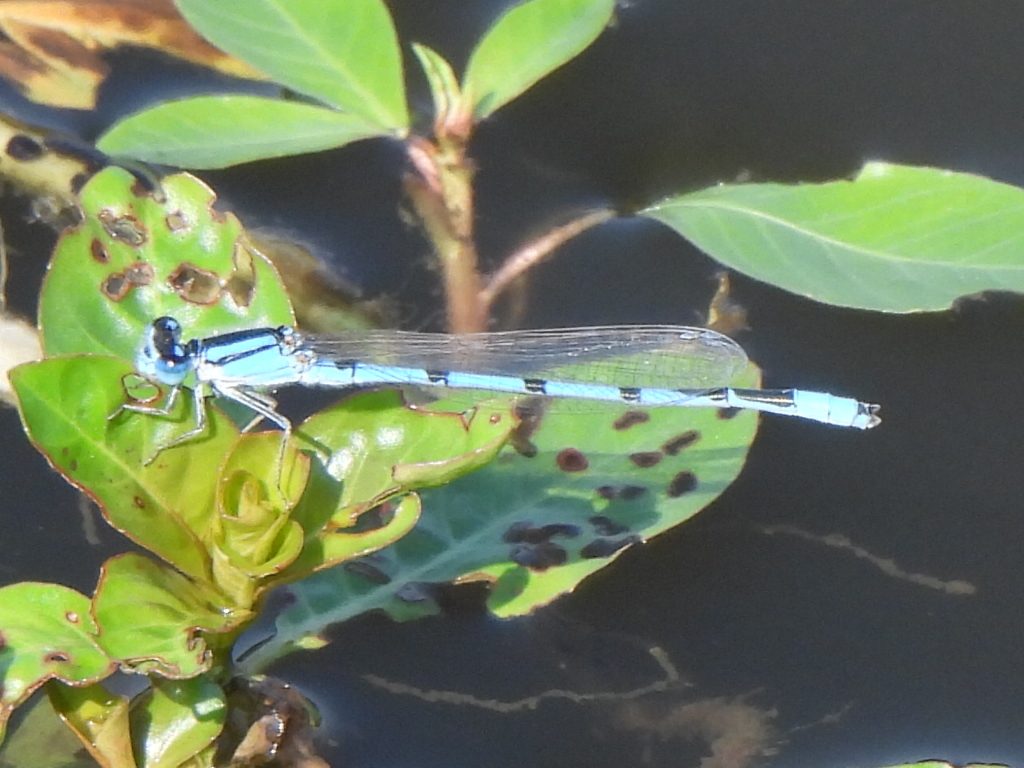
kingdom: Animalia
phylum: Arthropoda
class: Insecta
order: Odonata
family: Coenagrionidae
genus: Enallagma
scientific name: Enallagma civile
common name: Damselfly
